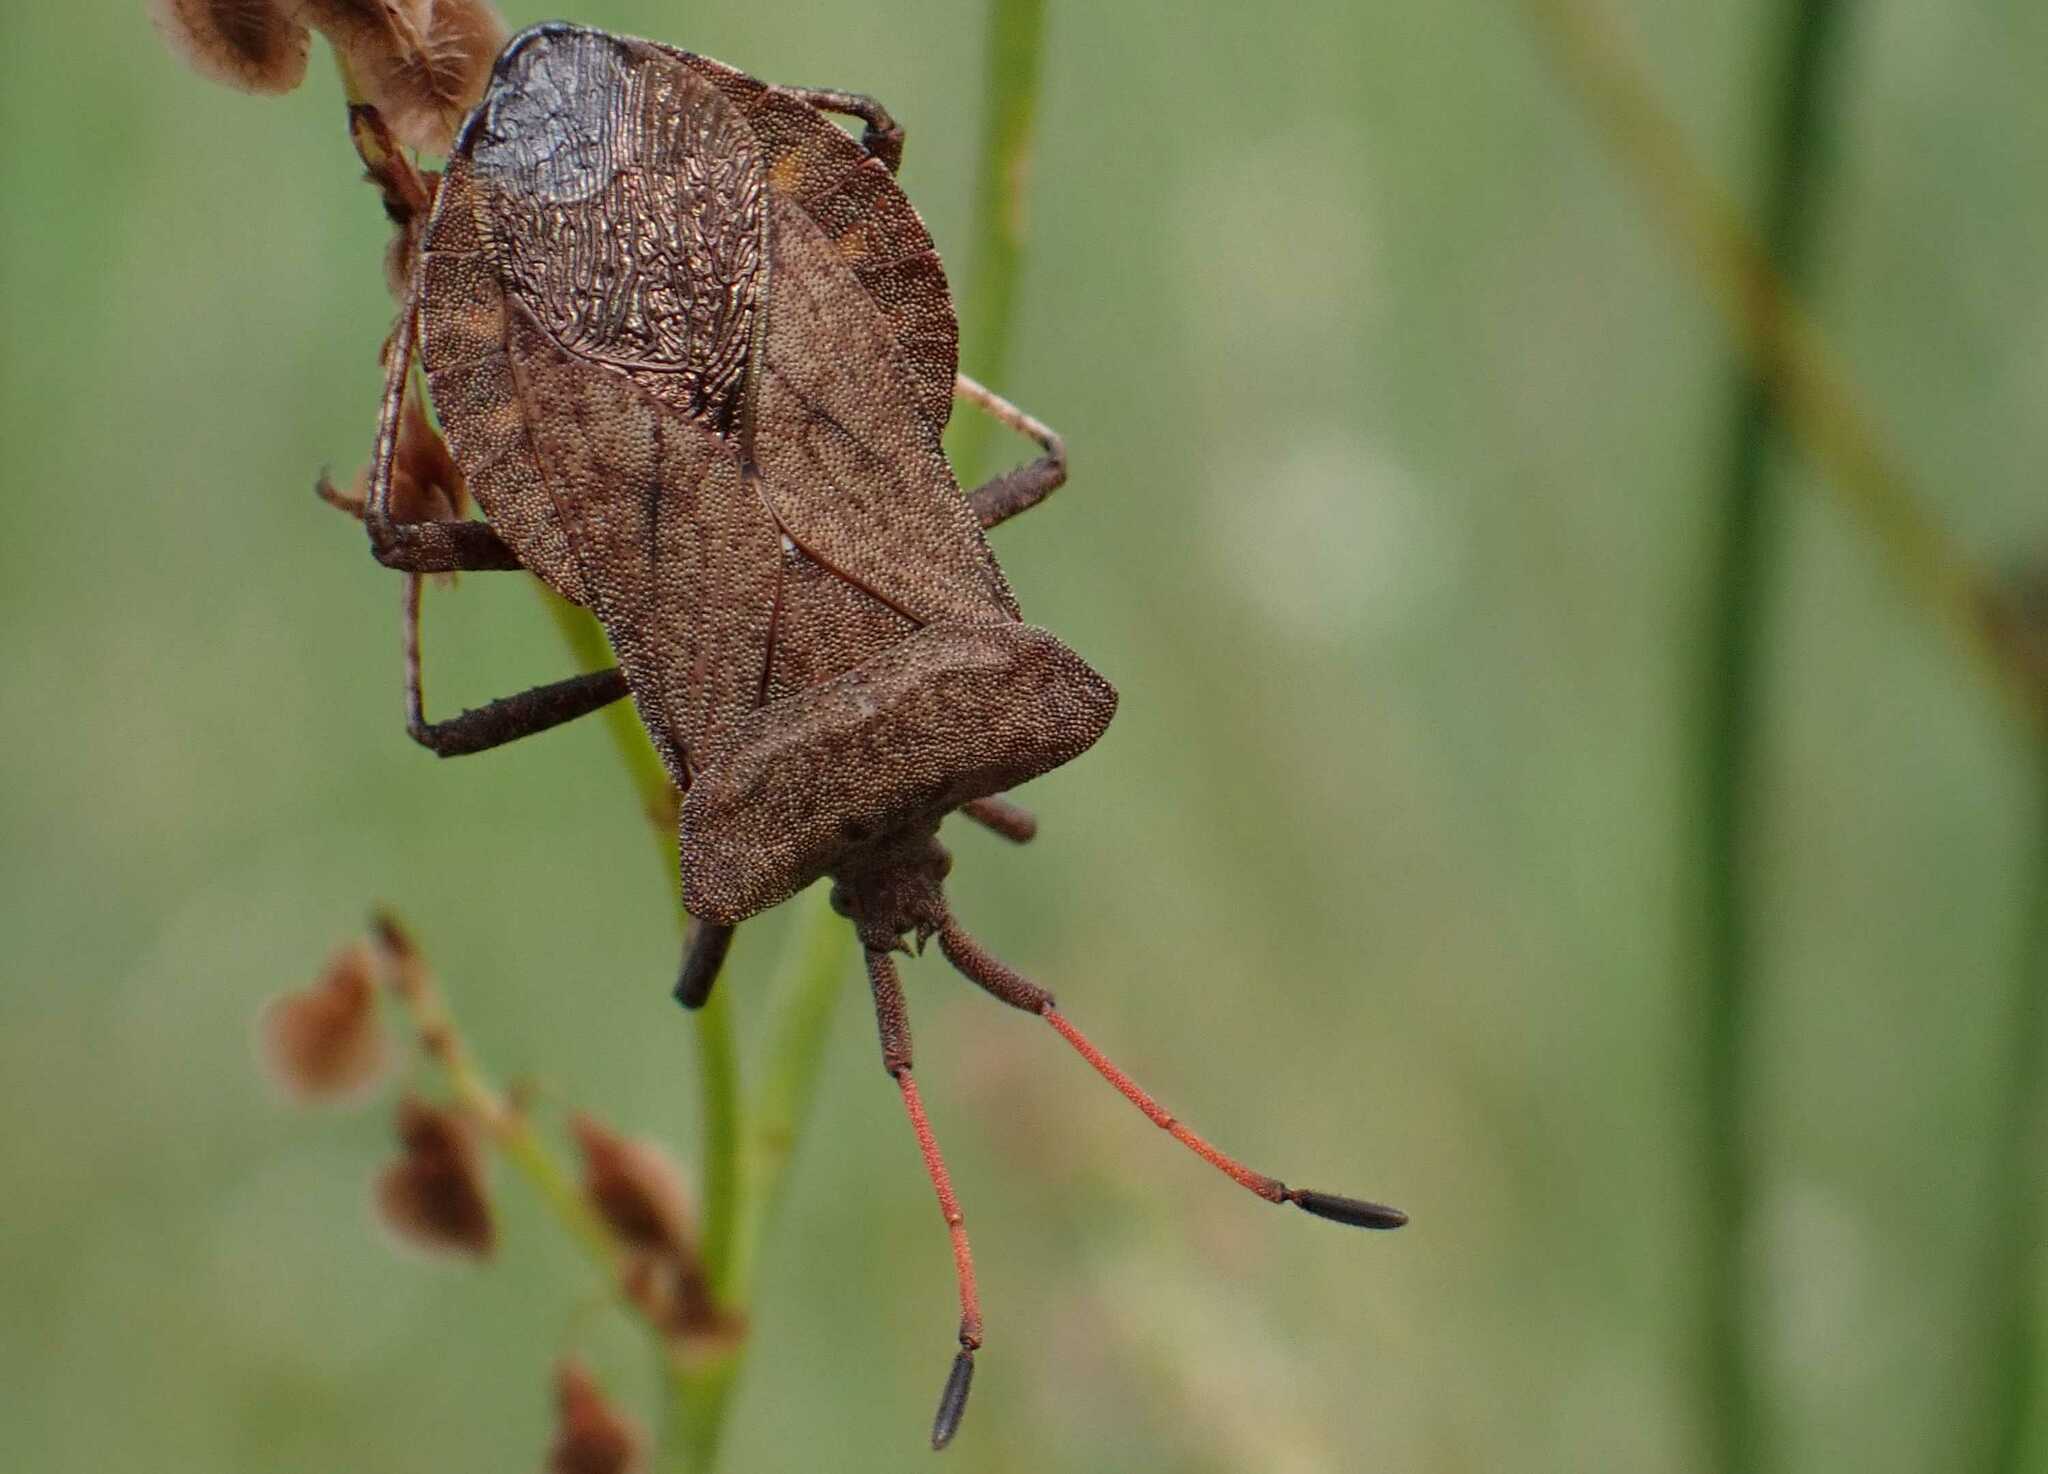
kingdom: Animalia
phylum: Arthropoda
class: Insecta
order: Hemiptera
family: Coreidae
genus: Coreus
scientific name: Coreus marginatus
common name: Dock bug
